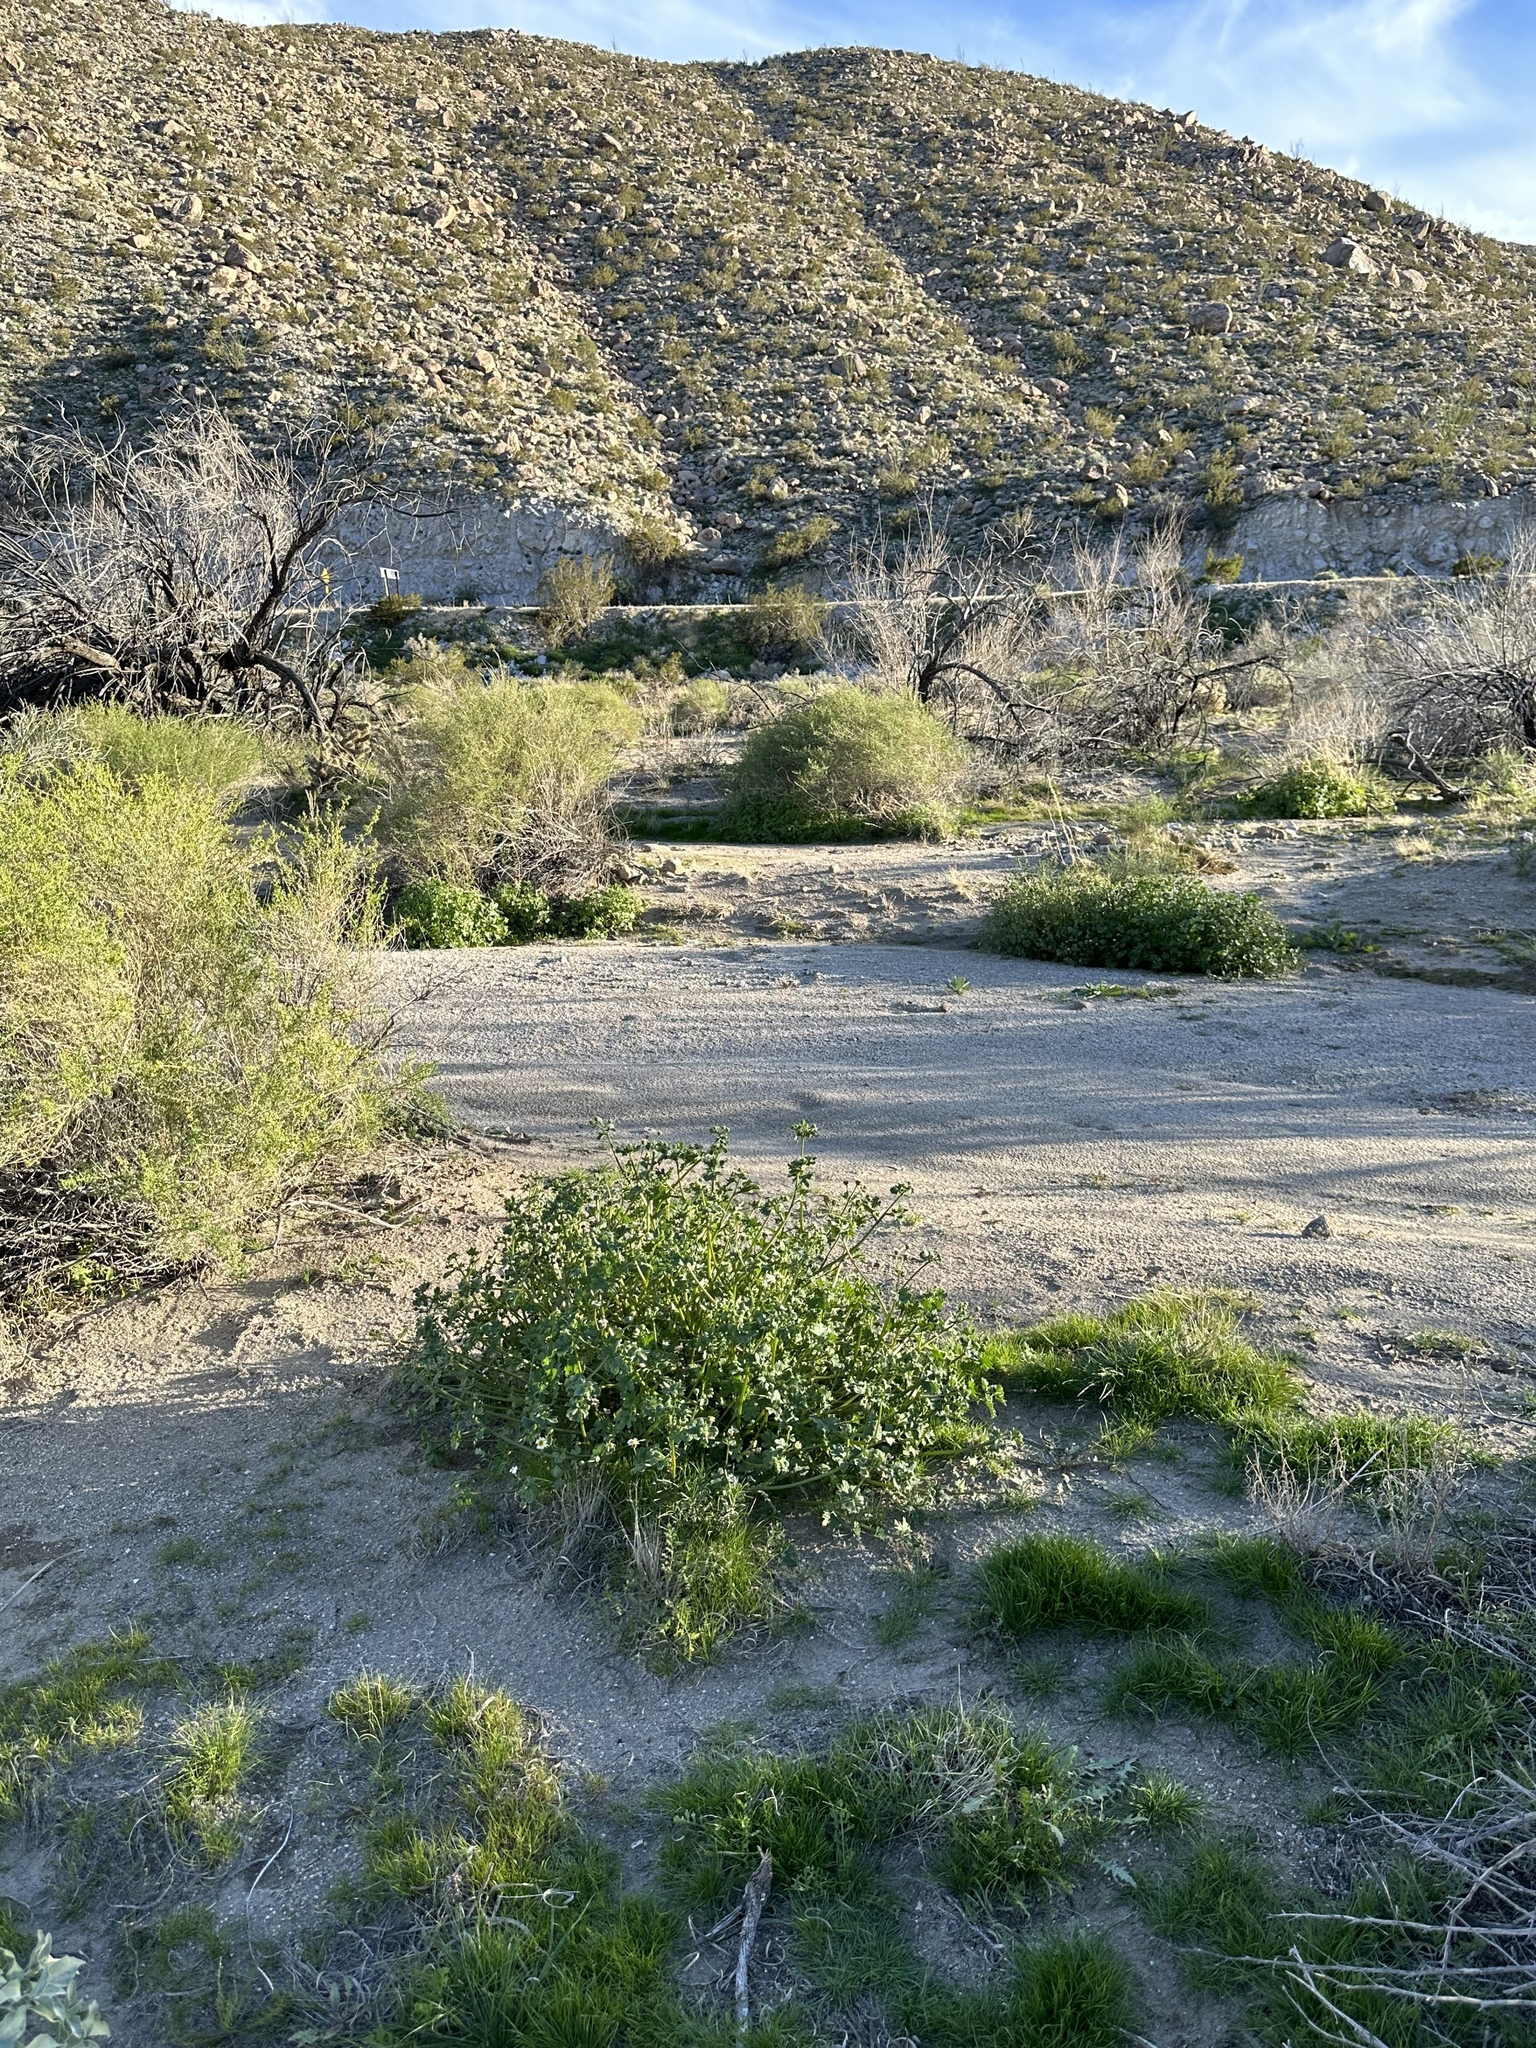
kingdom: Plantae
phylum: Tracheophyta
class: Magnoliopsida
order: Asterales
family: Asteraceae
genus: Laphamia
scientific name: Laphamia emoryi
